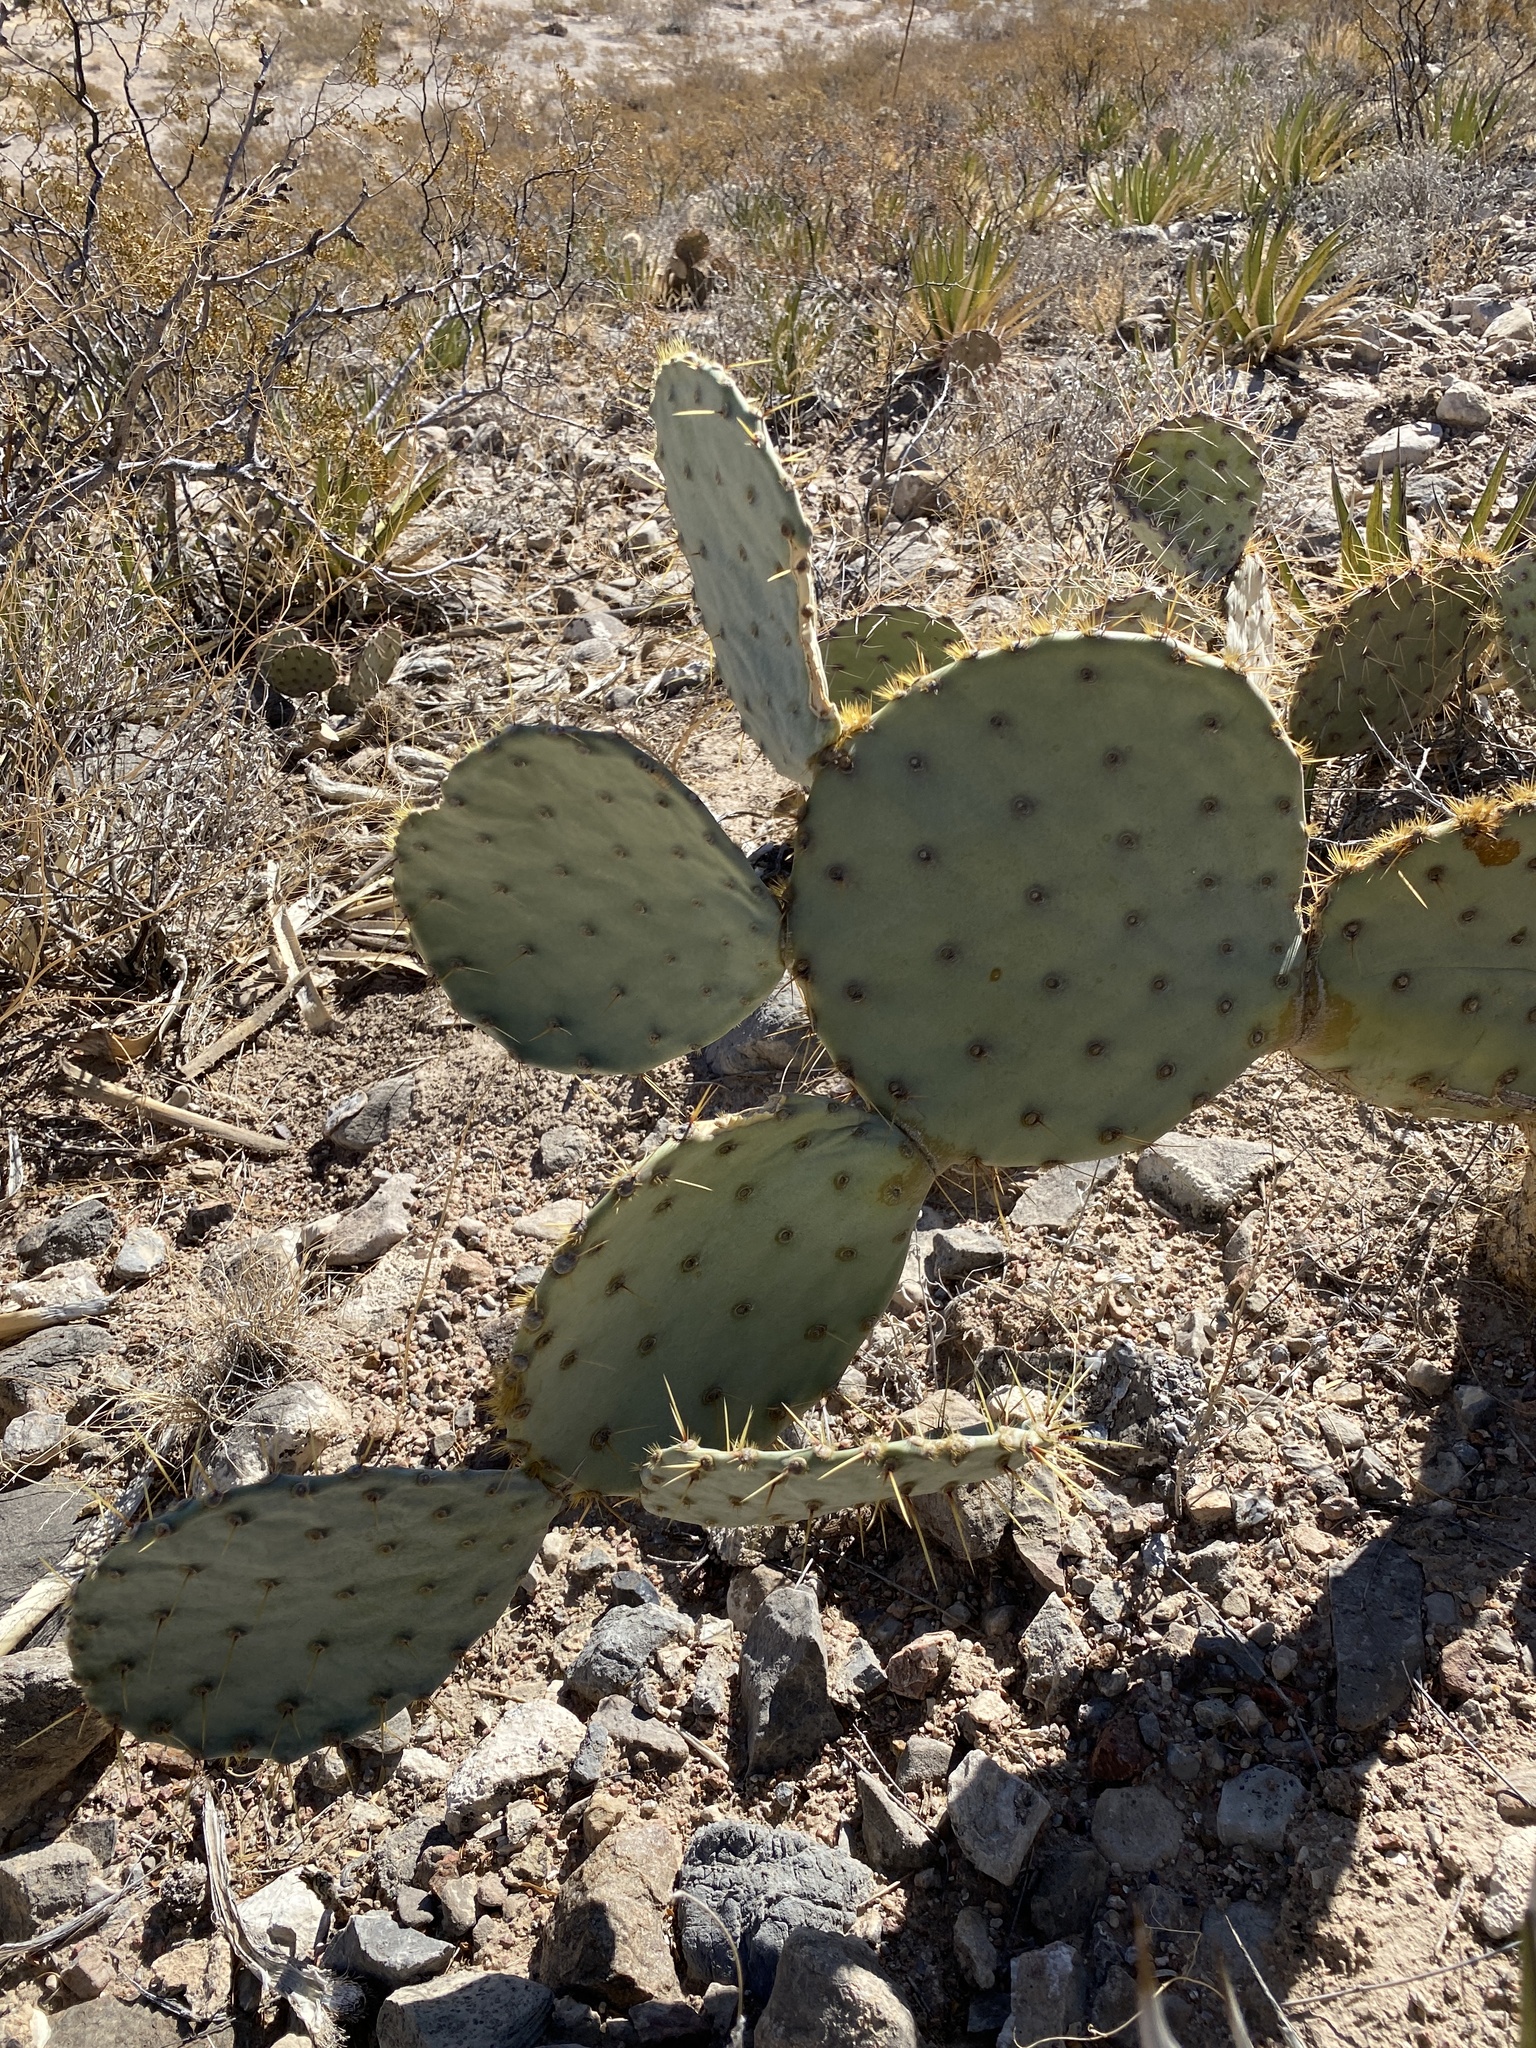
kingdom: Plantae
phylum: Tracheophyta
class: Magnoliopsida
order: Caryophyllales
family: Cactaceae
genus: Opuntia
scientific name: Opuntia engelmannii
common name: Cactus-apple
